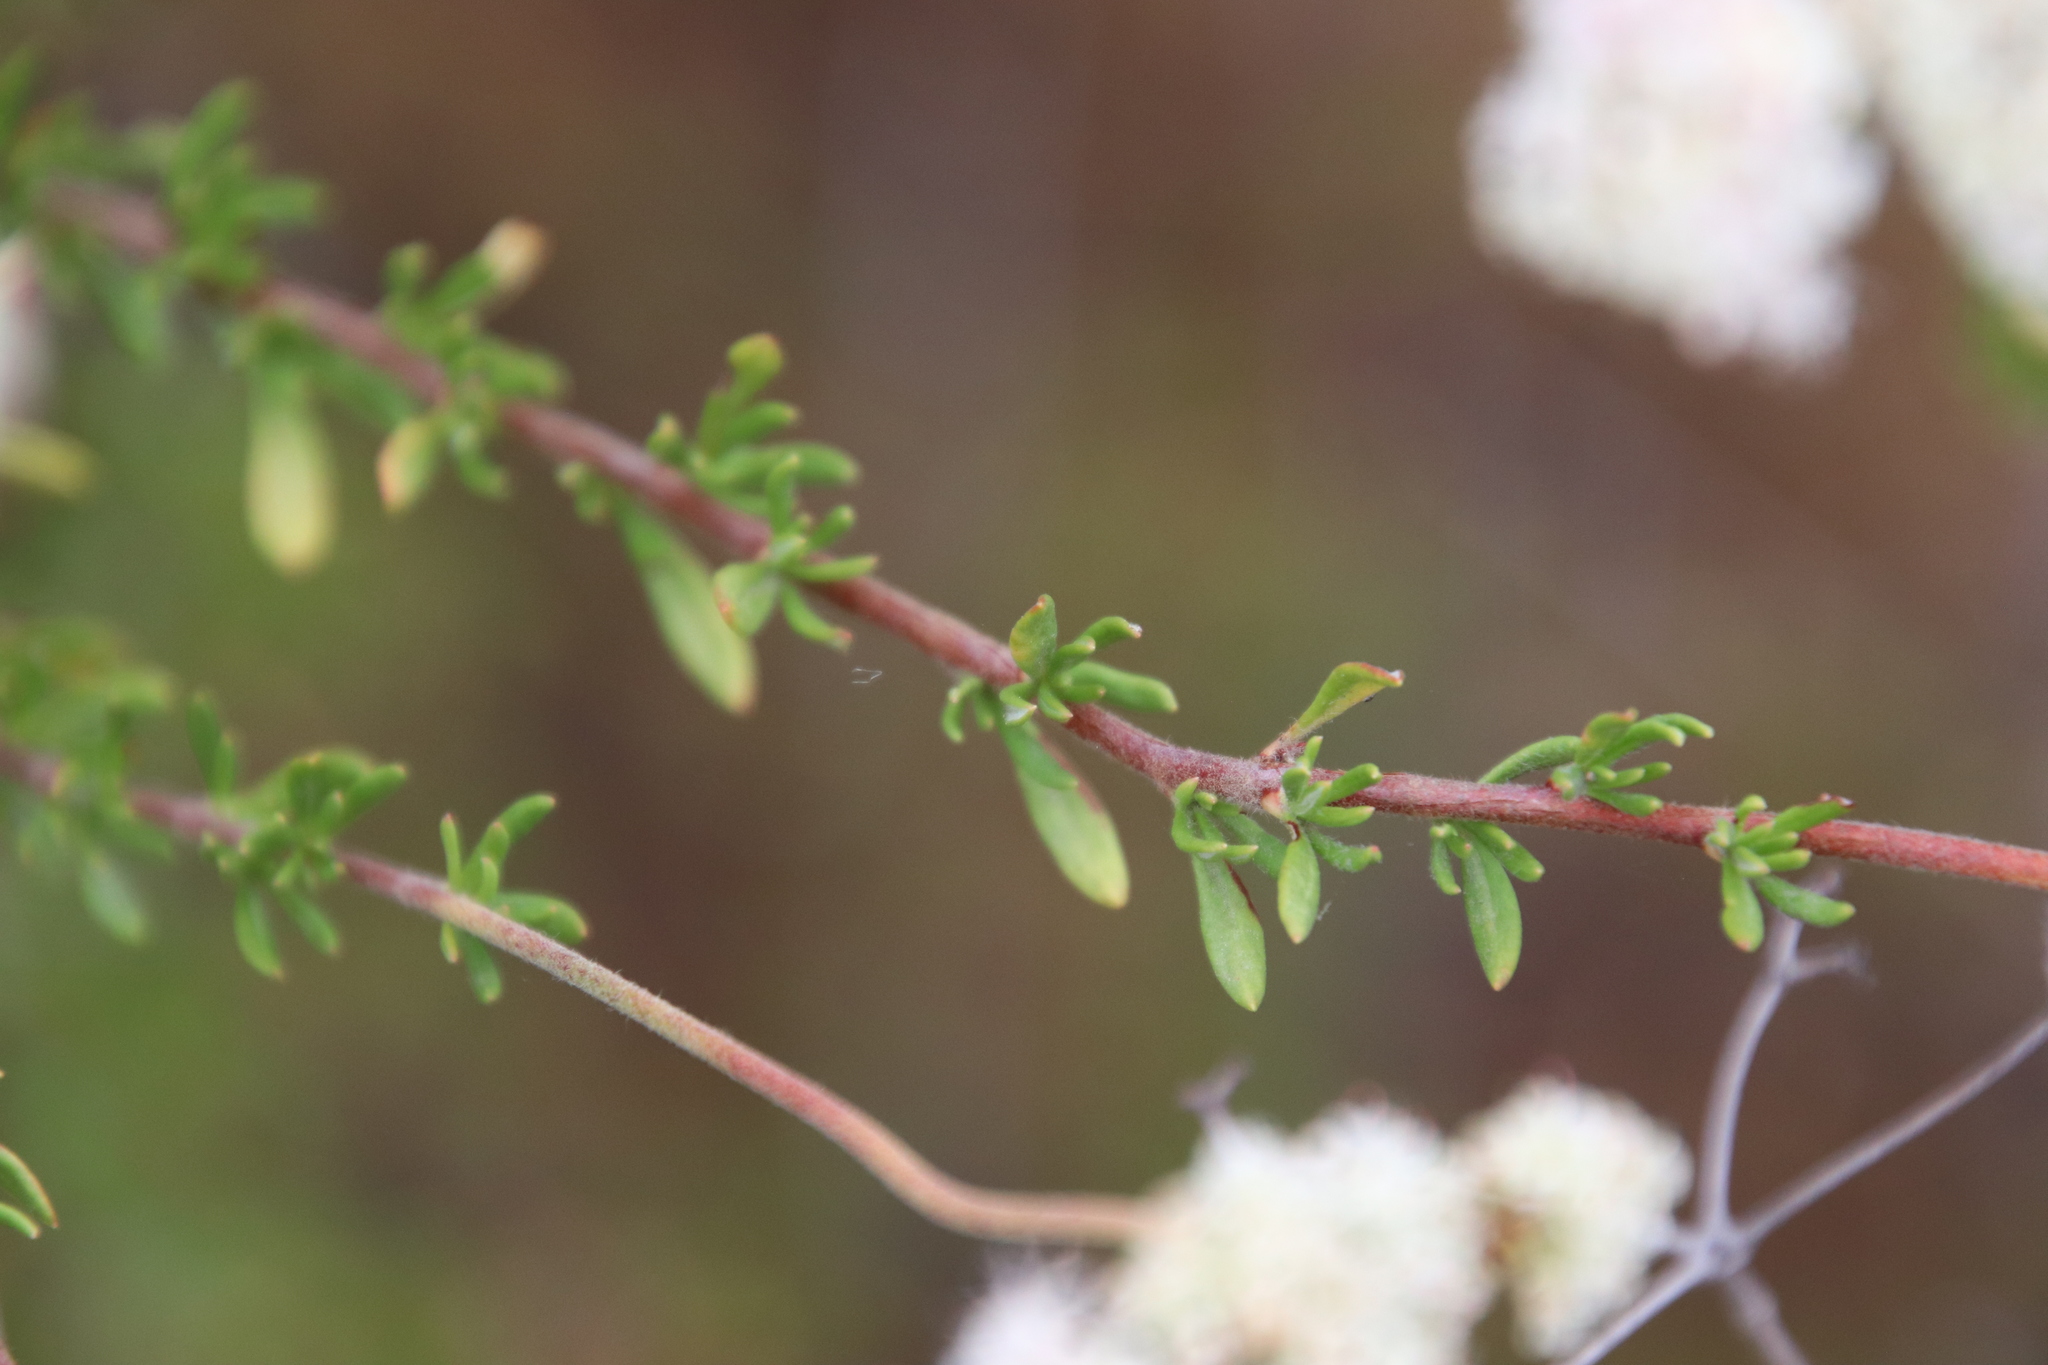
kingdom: Plantae
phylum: Tracheophyta
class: Magnoliopsida
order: Caryophyllales
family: Polygonaceae
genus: Eriogonum
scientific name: Eriogonum fasciculatum
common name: California wild buckwheat
